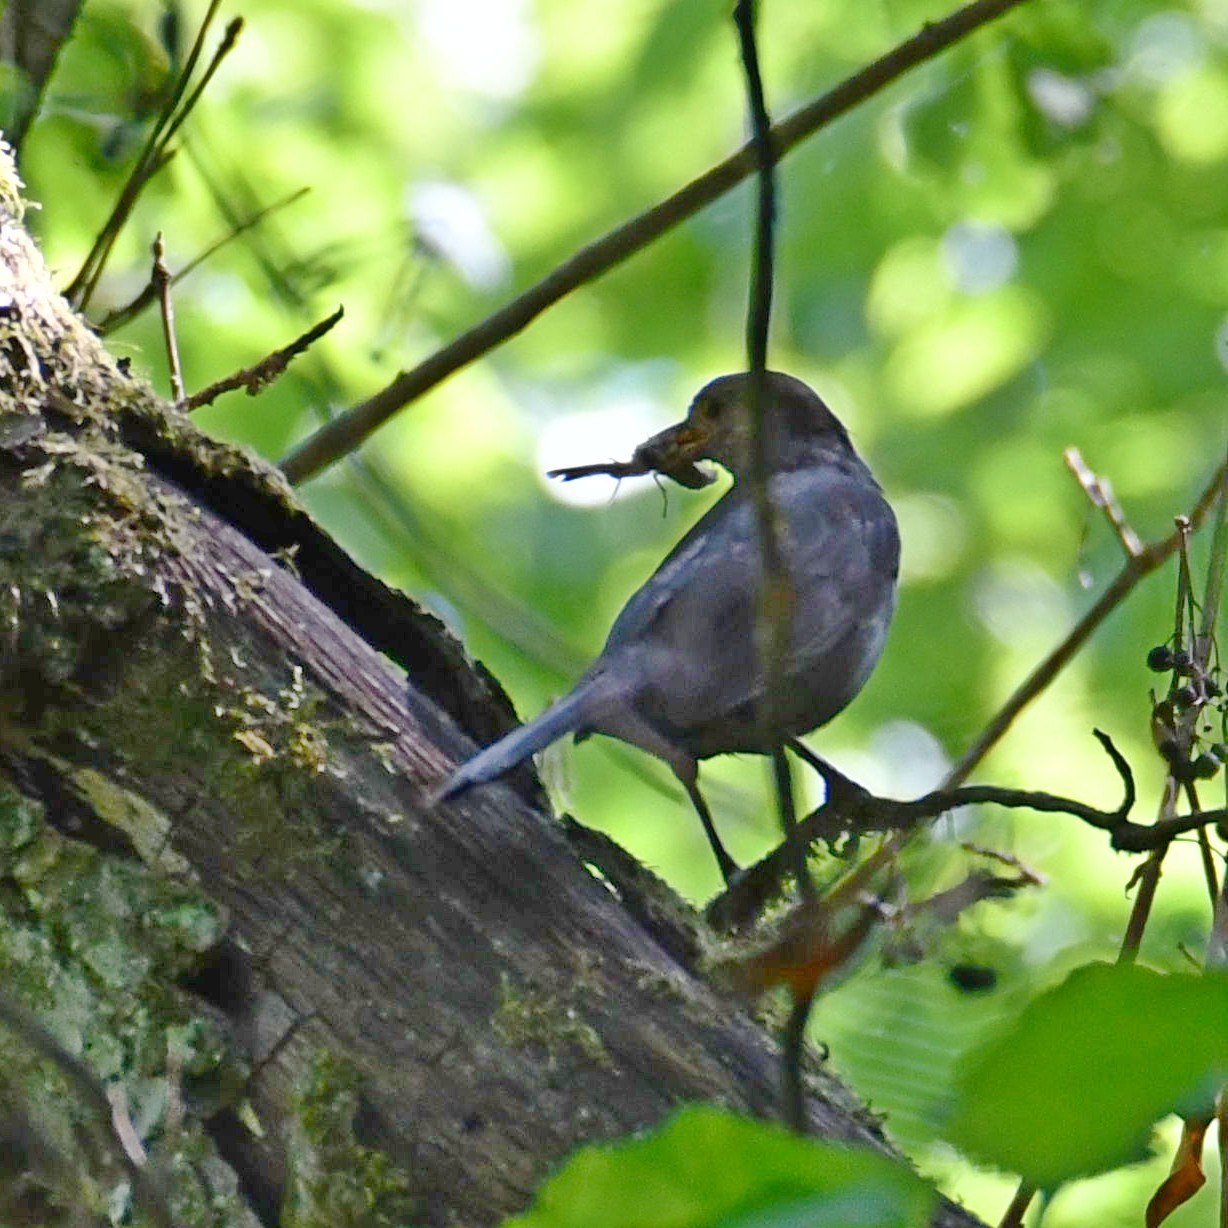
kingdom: Animalia
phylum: Chordata
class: Aves
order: Passeriformes
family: Turdidae
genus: Turdus
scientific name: Turdus merula
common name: Common blackbird
